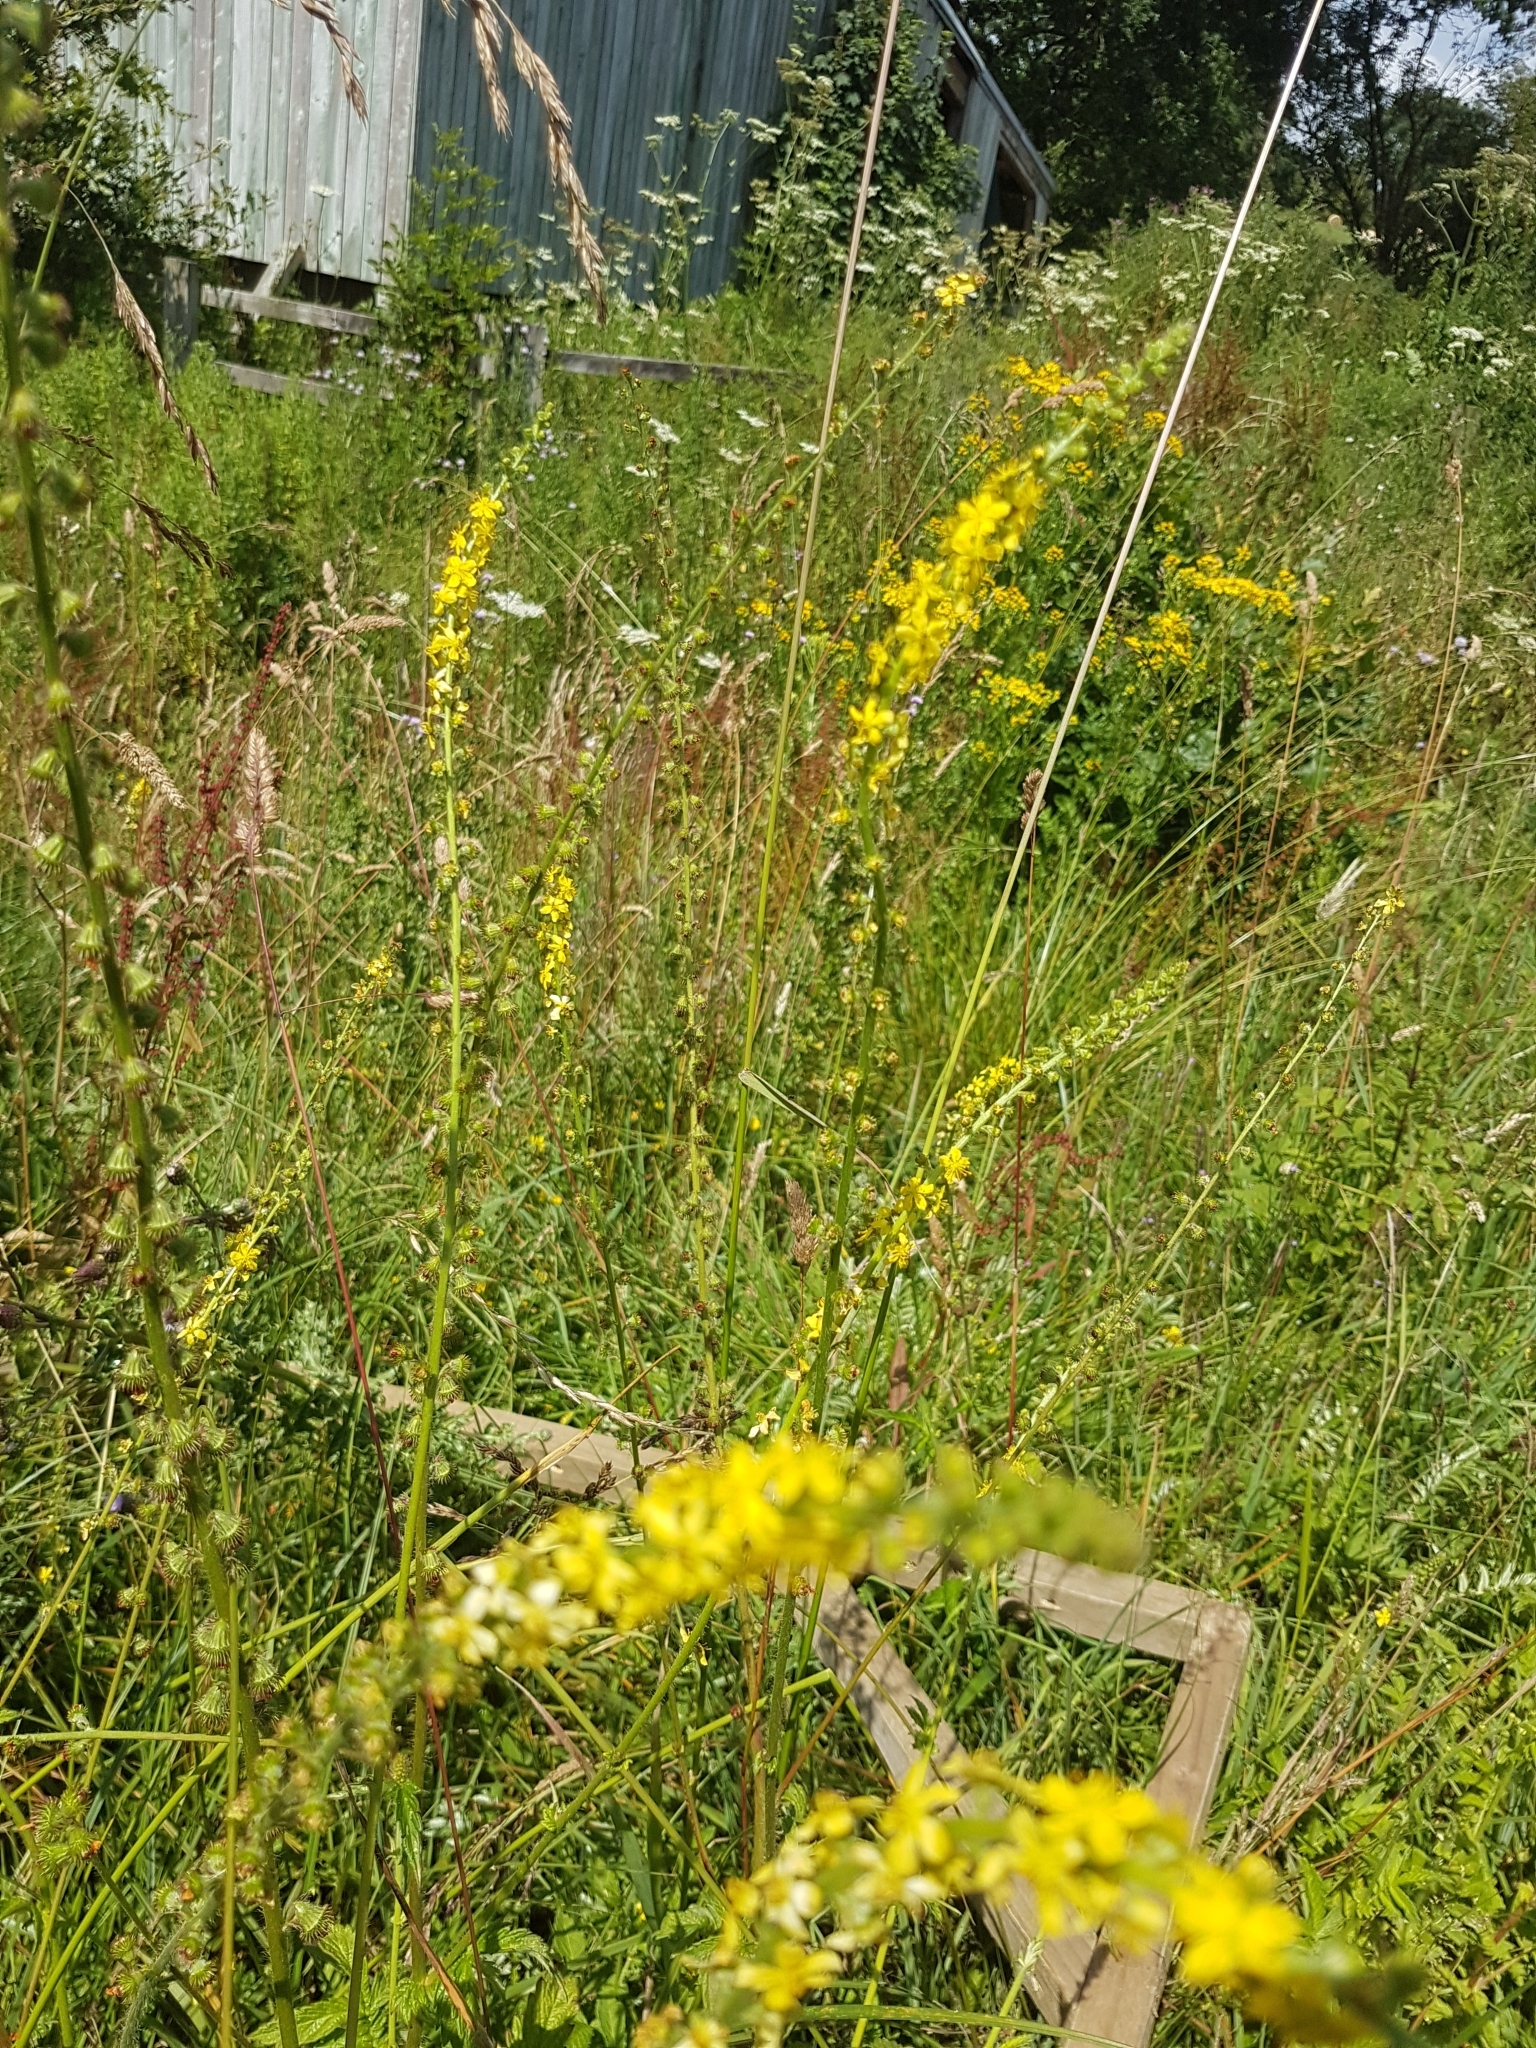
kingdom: Plantae
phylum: Tracheophyta
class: Magnoliopsida
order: Rosales
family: Rosaceae
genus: Agrimonia
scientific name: Agrimonia eupatoria
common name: Agrimony
